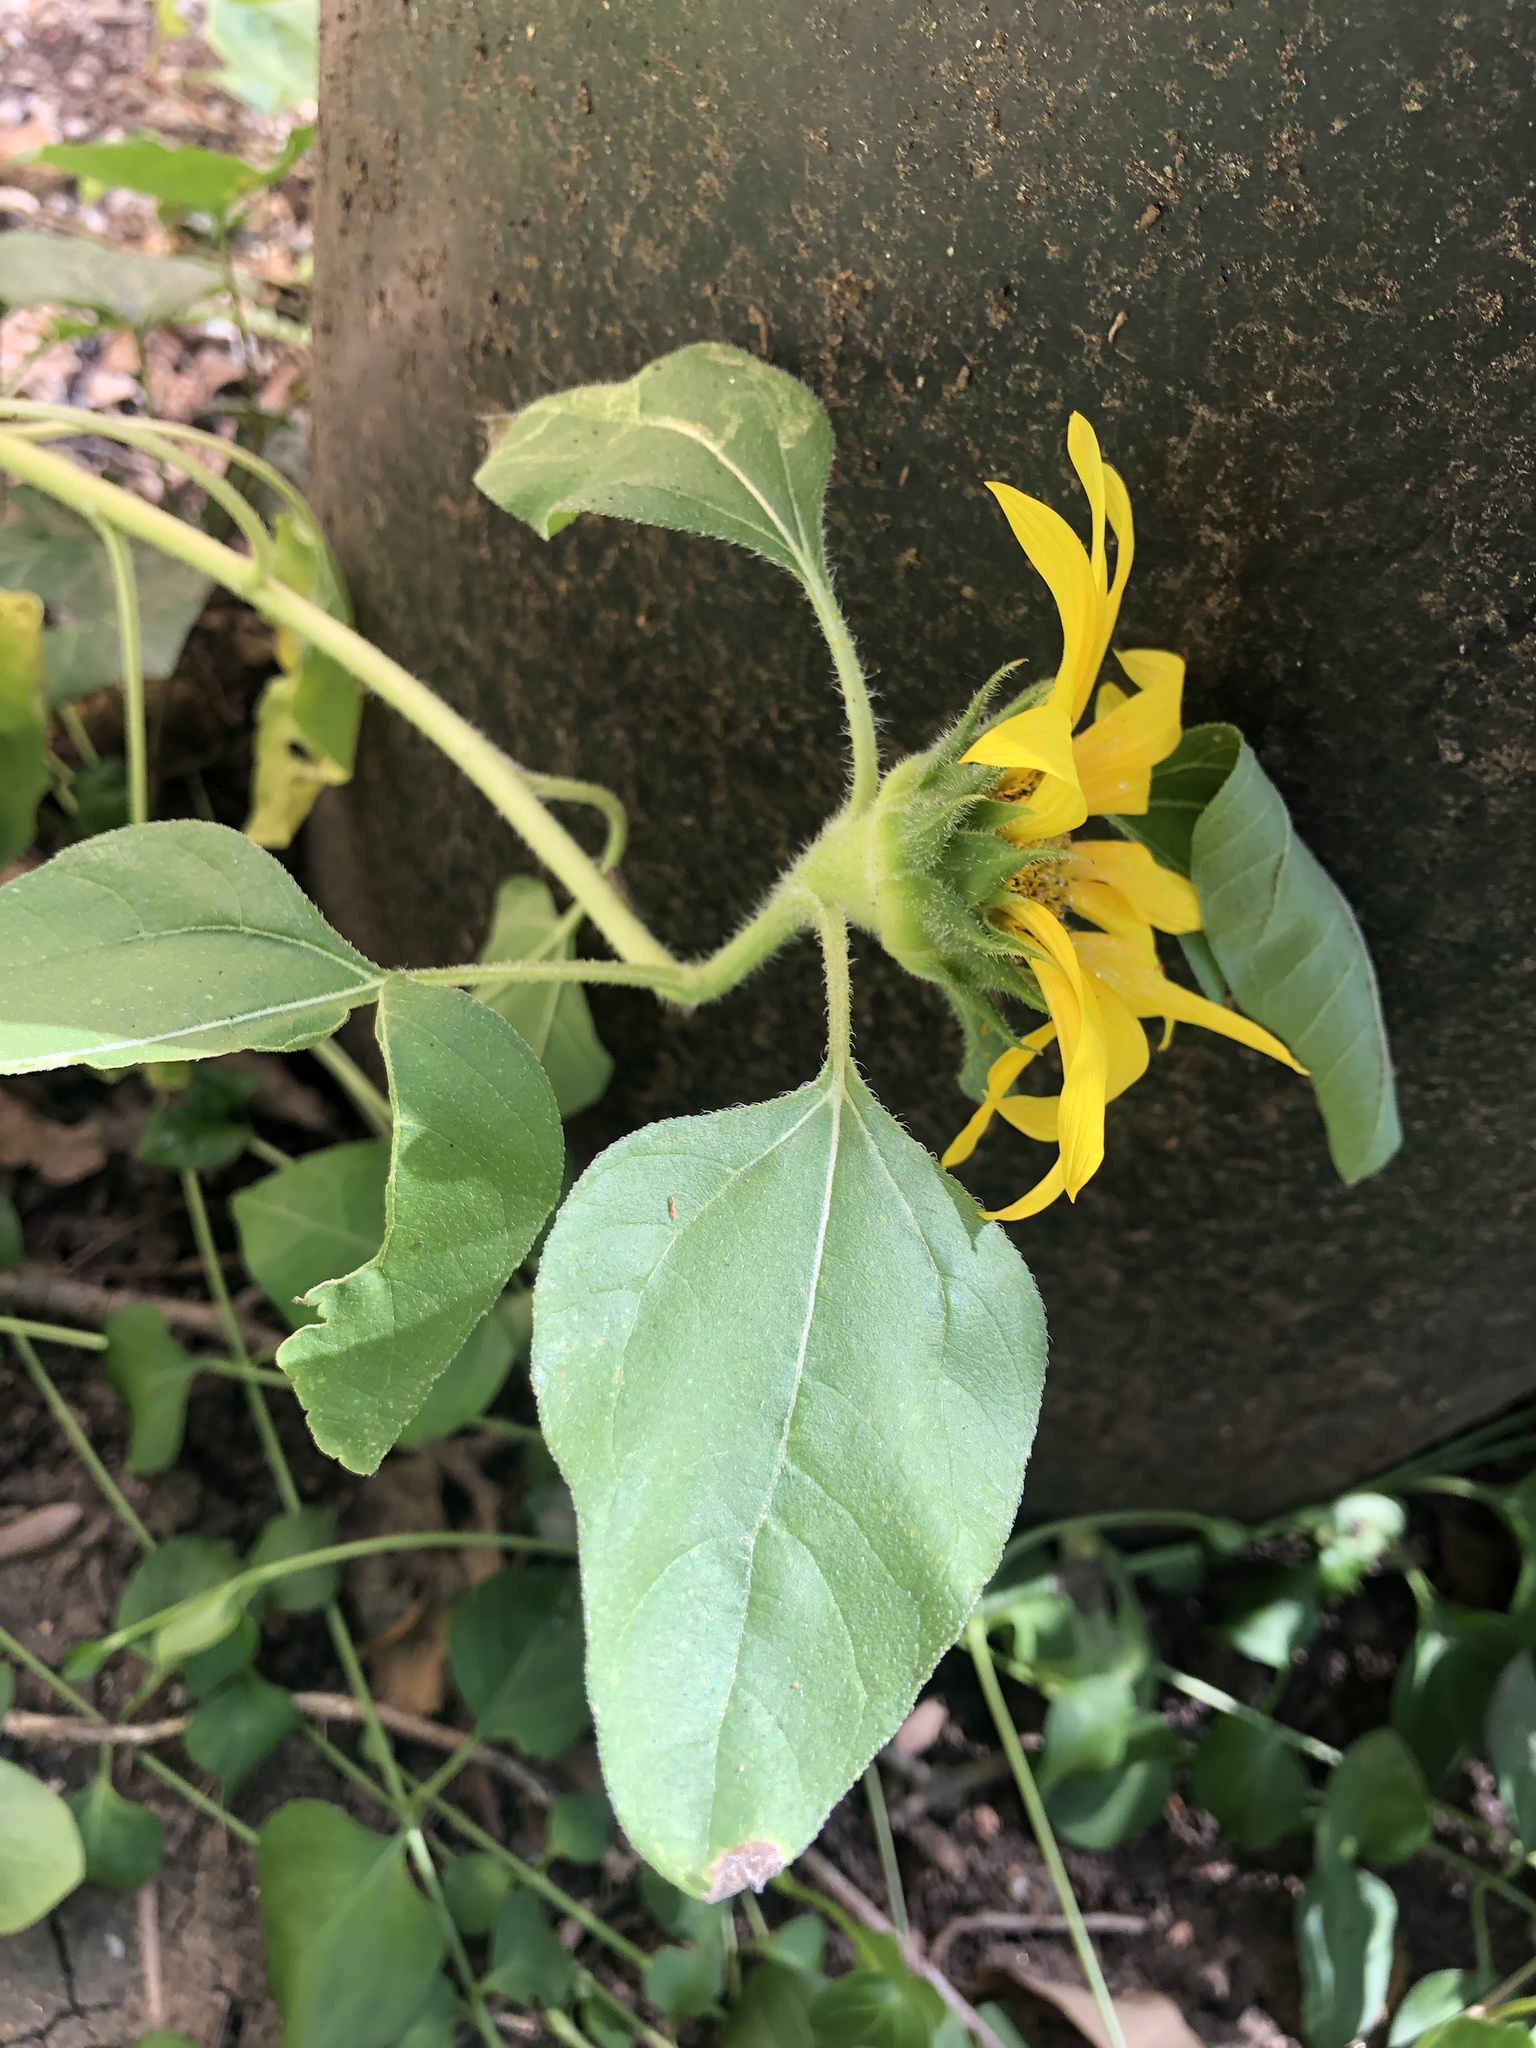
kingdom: Plantae
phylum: Tracheophyta
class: Magnoliopsida
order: Asterales
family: Asteraceae
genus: Helianthus
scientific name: Helianthus annuus
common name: Sunflower
